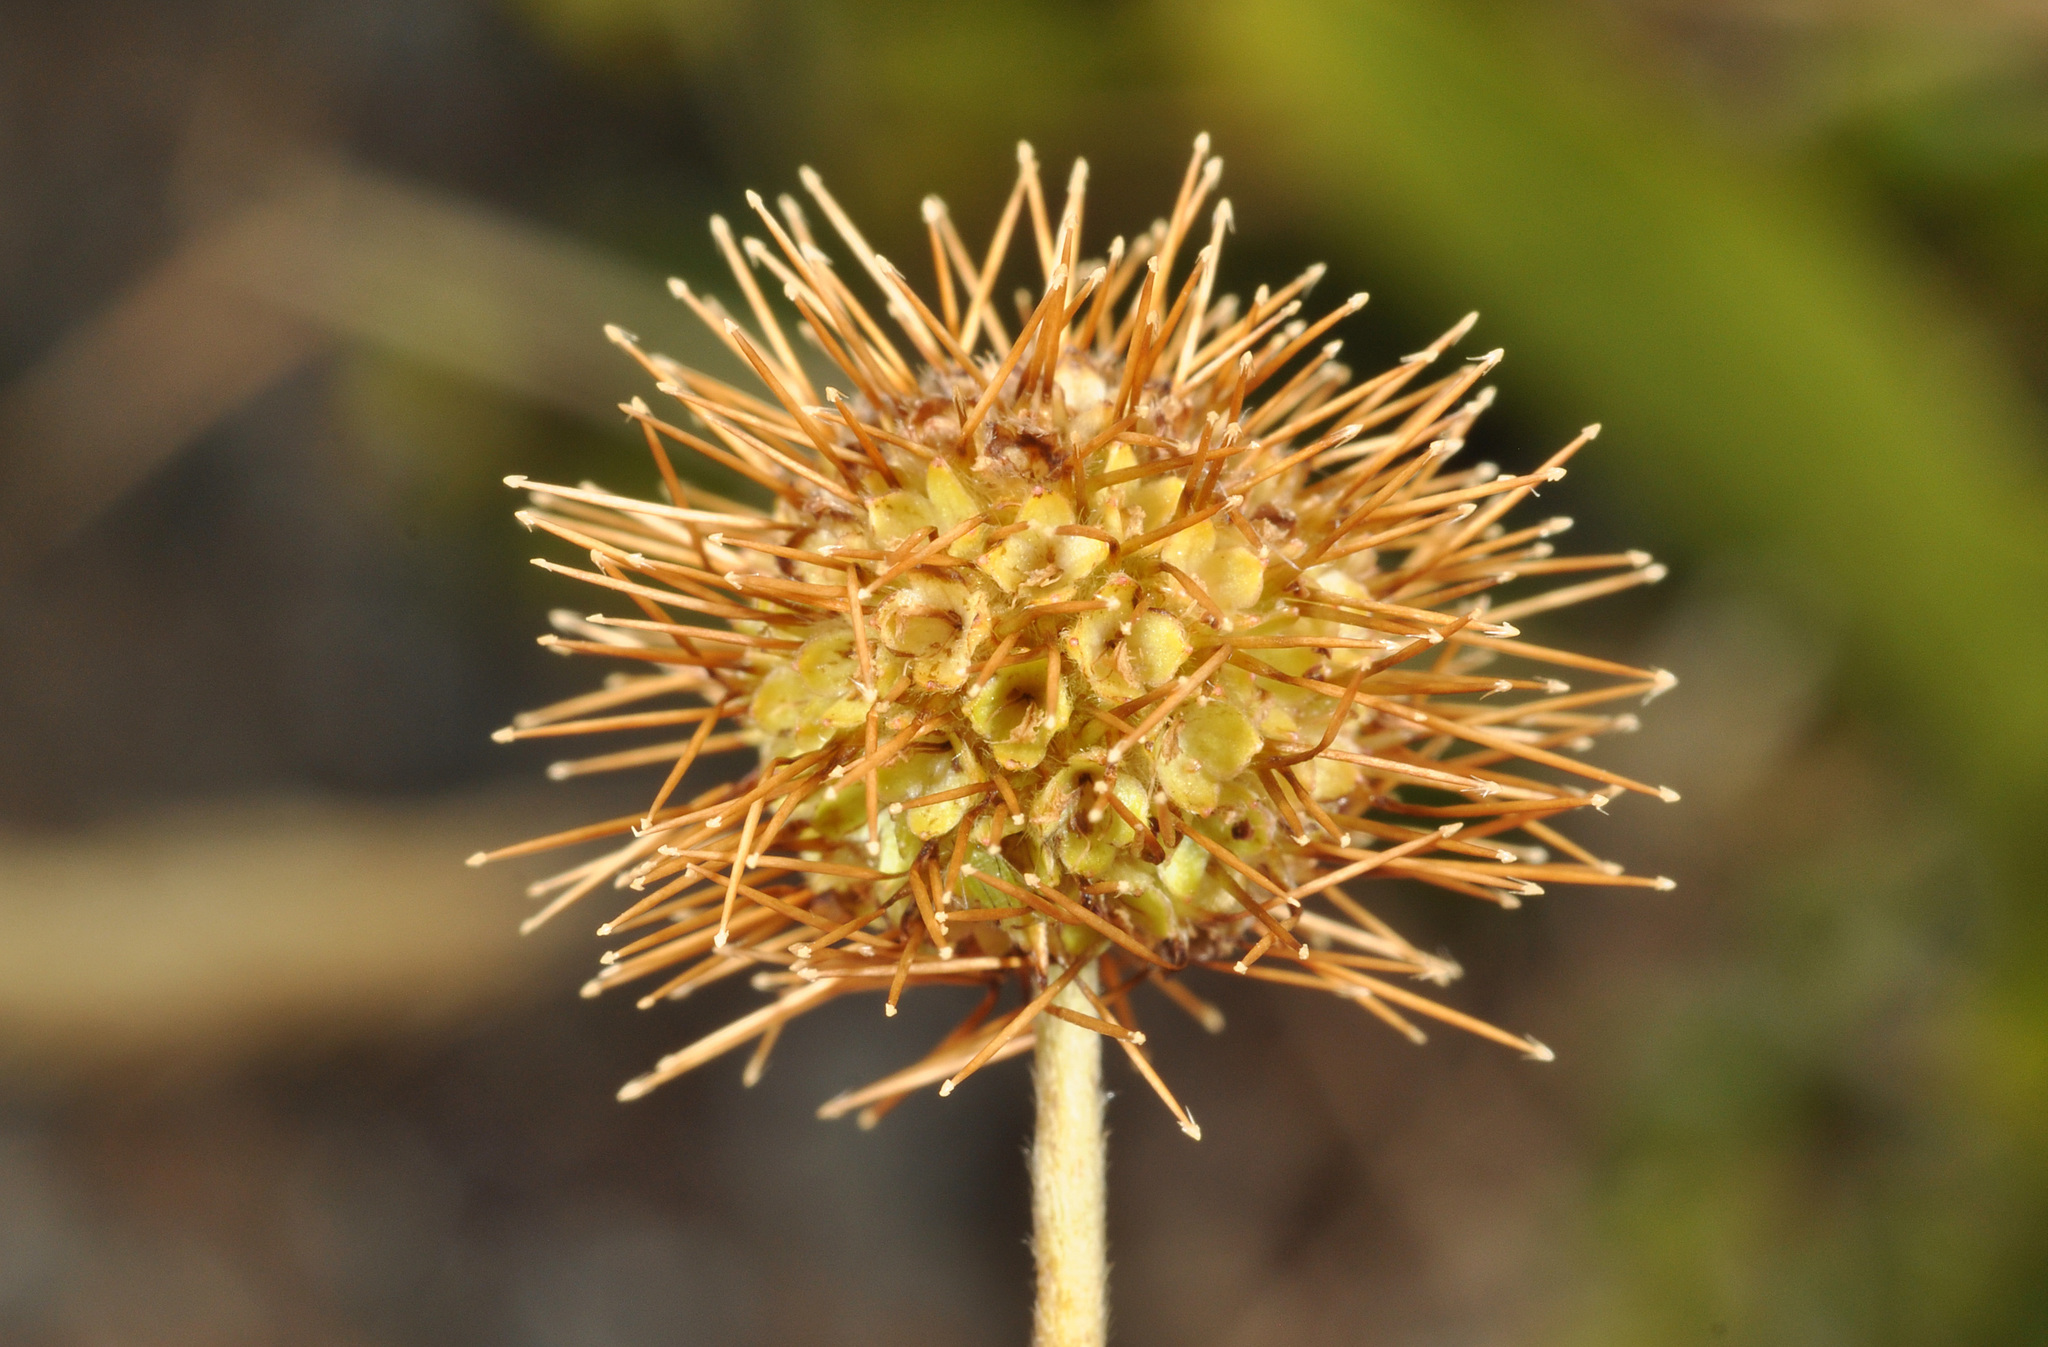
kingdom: Plantae
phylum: Tracheophyta
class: Magnoliopsida
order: Rosales
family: Rosaceae
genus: Acaena
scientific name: Acaena anserinifolia
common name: Bronze pirri-pirri-bur
